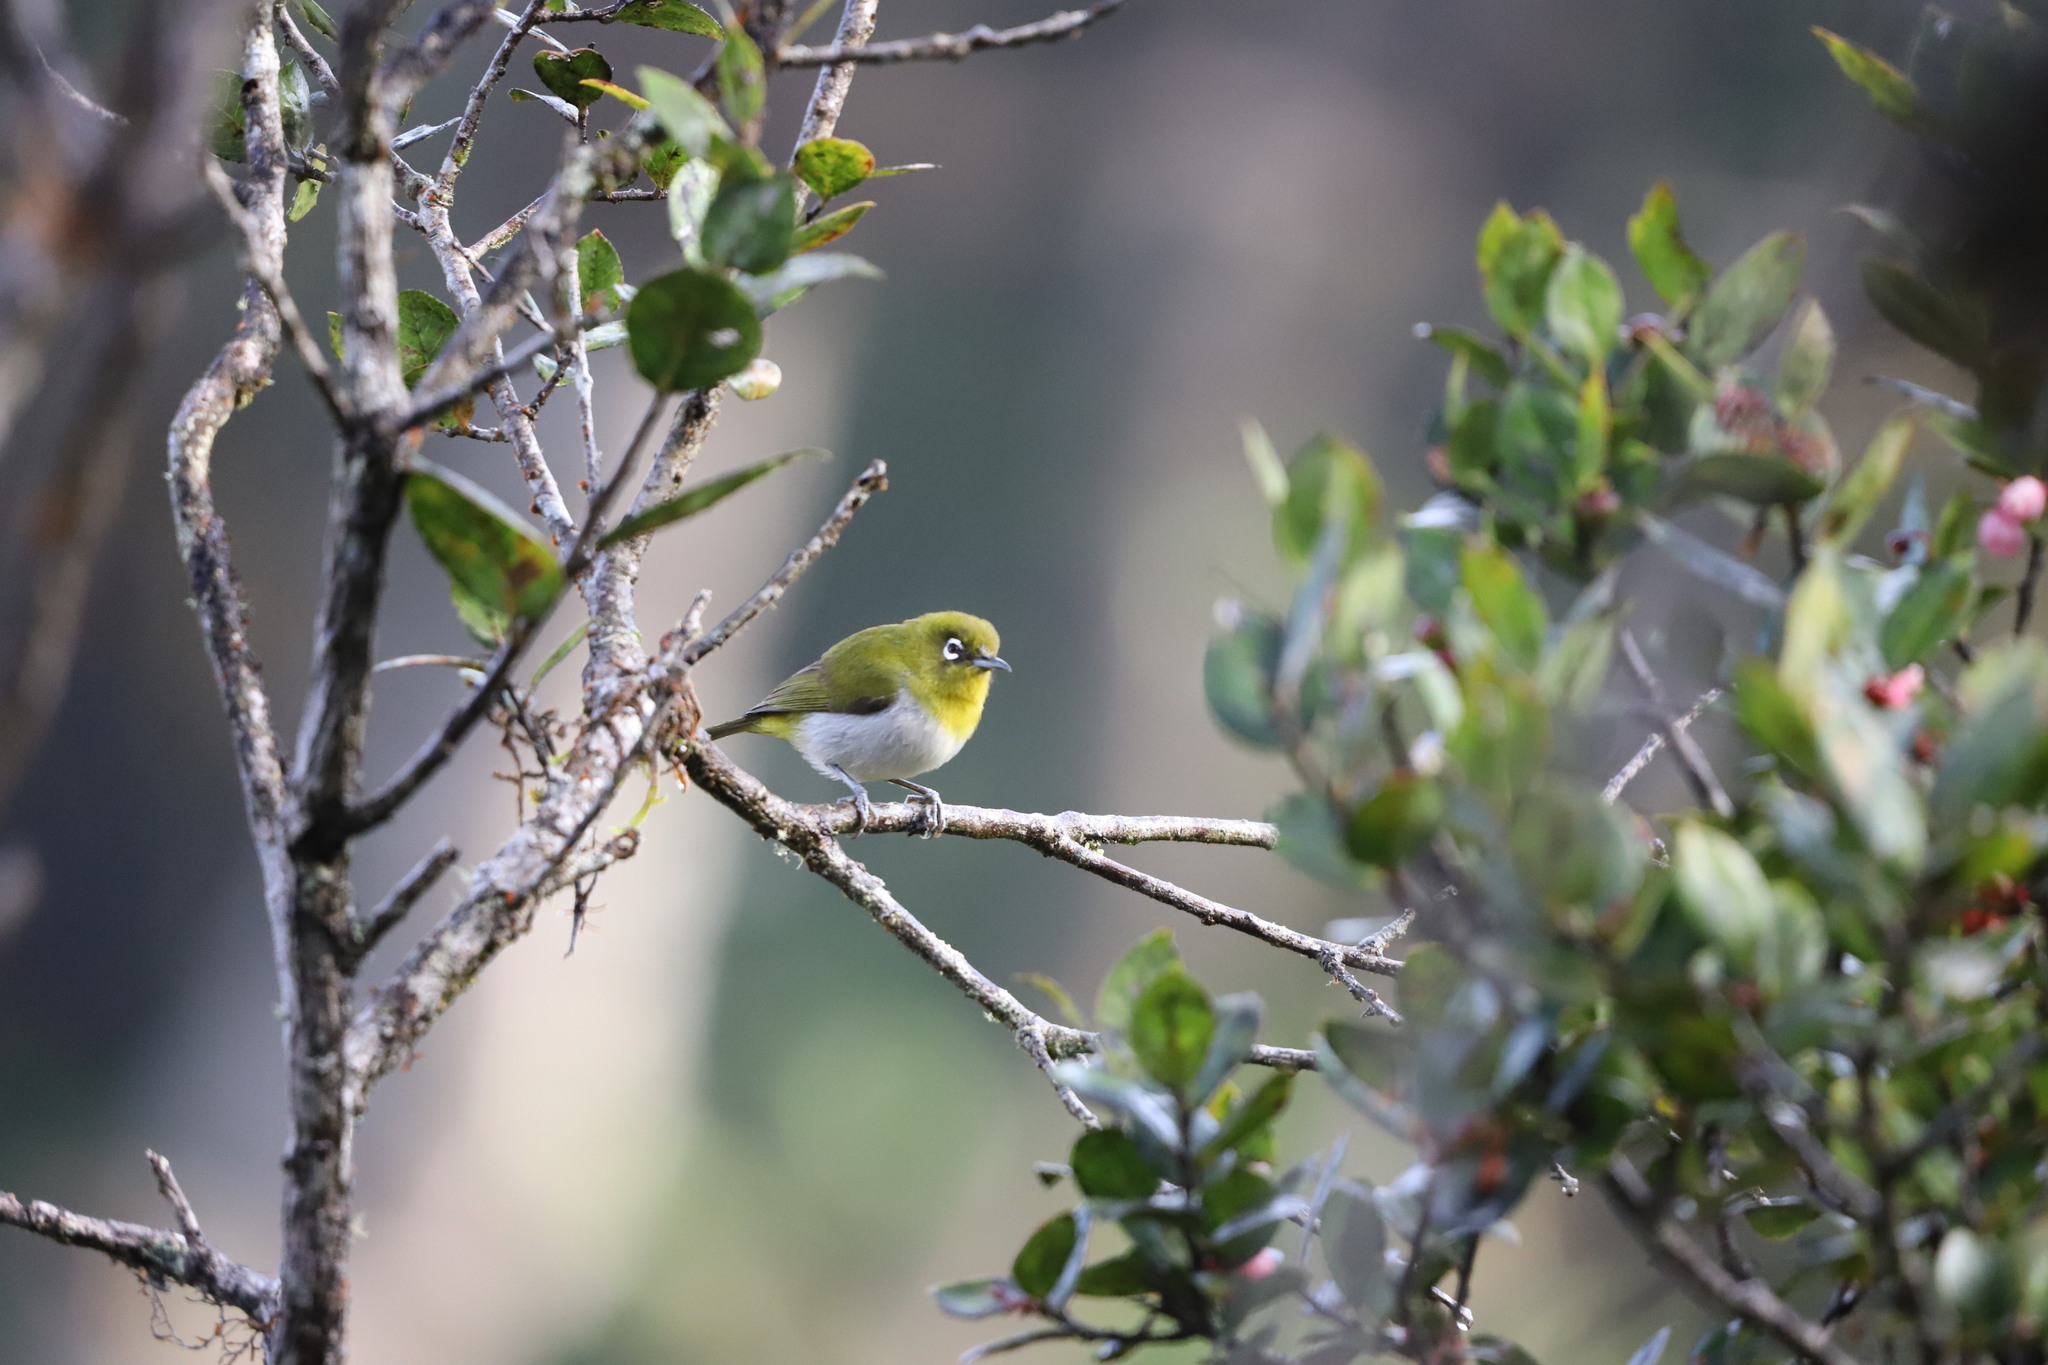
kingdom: Animalia
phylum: Chordata
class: Aves
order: Passeriformes
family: Zosteropidae
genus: Zosterops
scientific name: Zosterops ceylonensis
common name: Sri lanka white-eye
